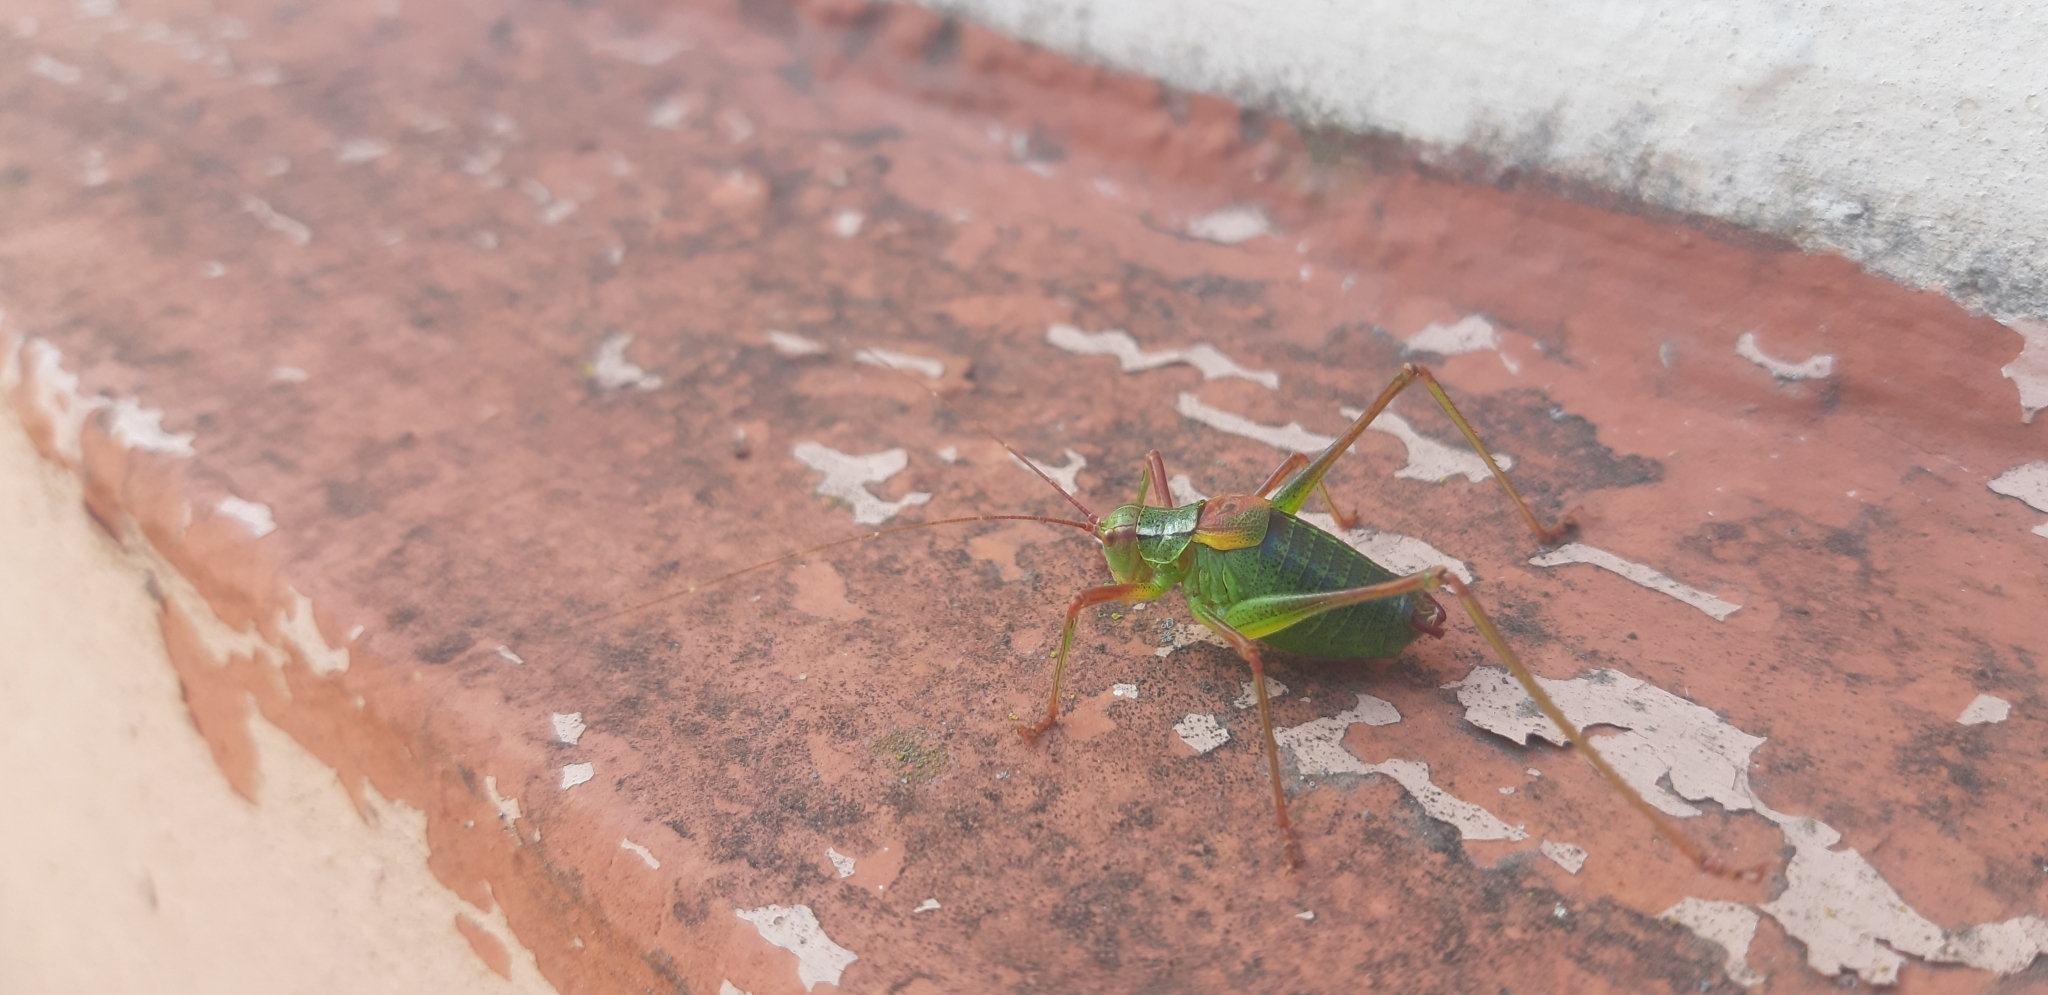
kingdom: Animalia
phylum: Arthropoda
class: Insecta
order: Orthoptera
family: Tettigoniidae
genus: Barbitistes
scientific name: Barbitistes constrictus
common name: Eastern saw-tailed bush cricket
